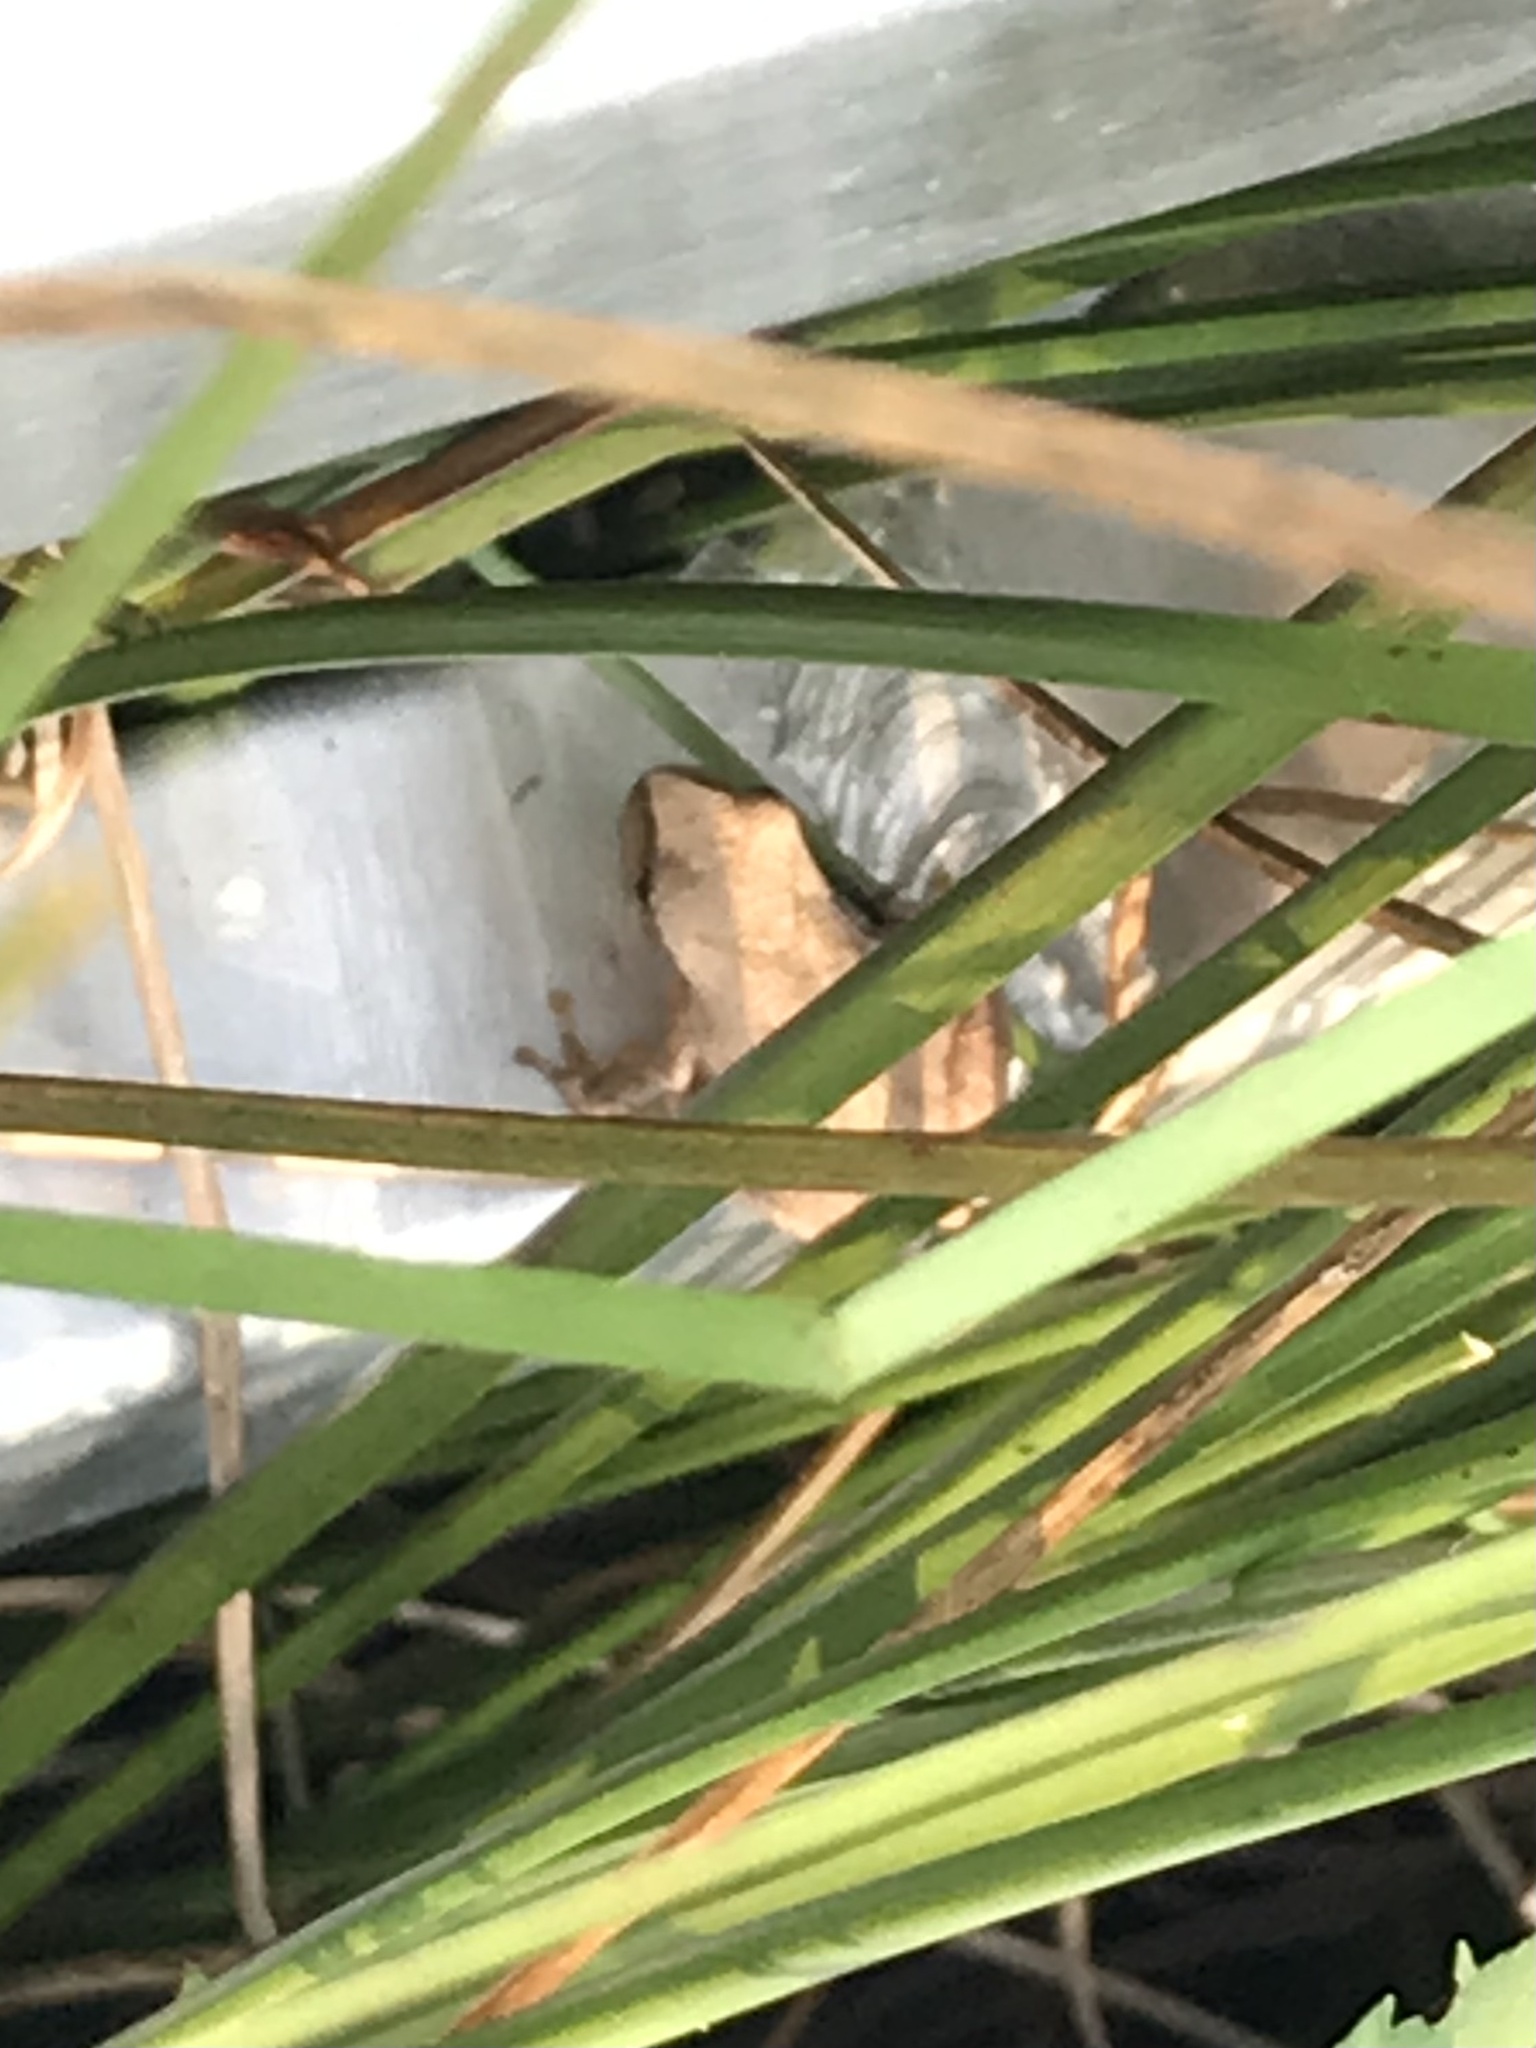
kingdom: Animalia
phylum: Chordata
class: Amphibia
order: Anura
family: Hylidae
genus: Pseudacris
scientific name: Pseudacris crucifer
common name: Spring peeper
